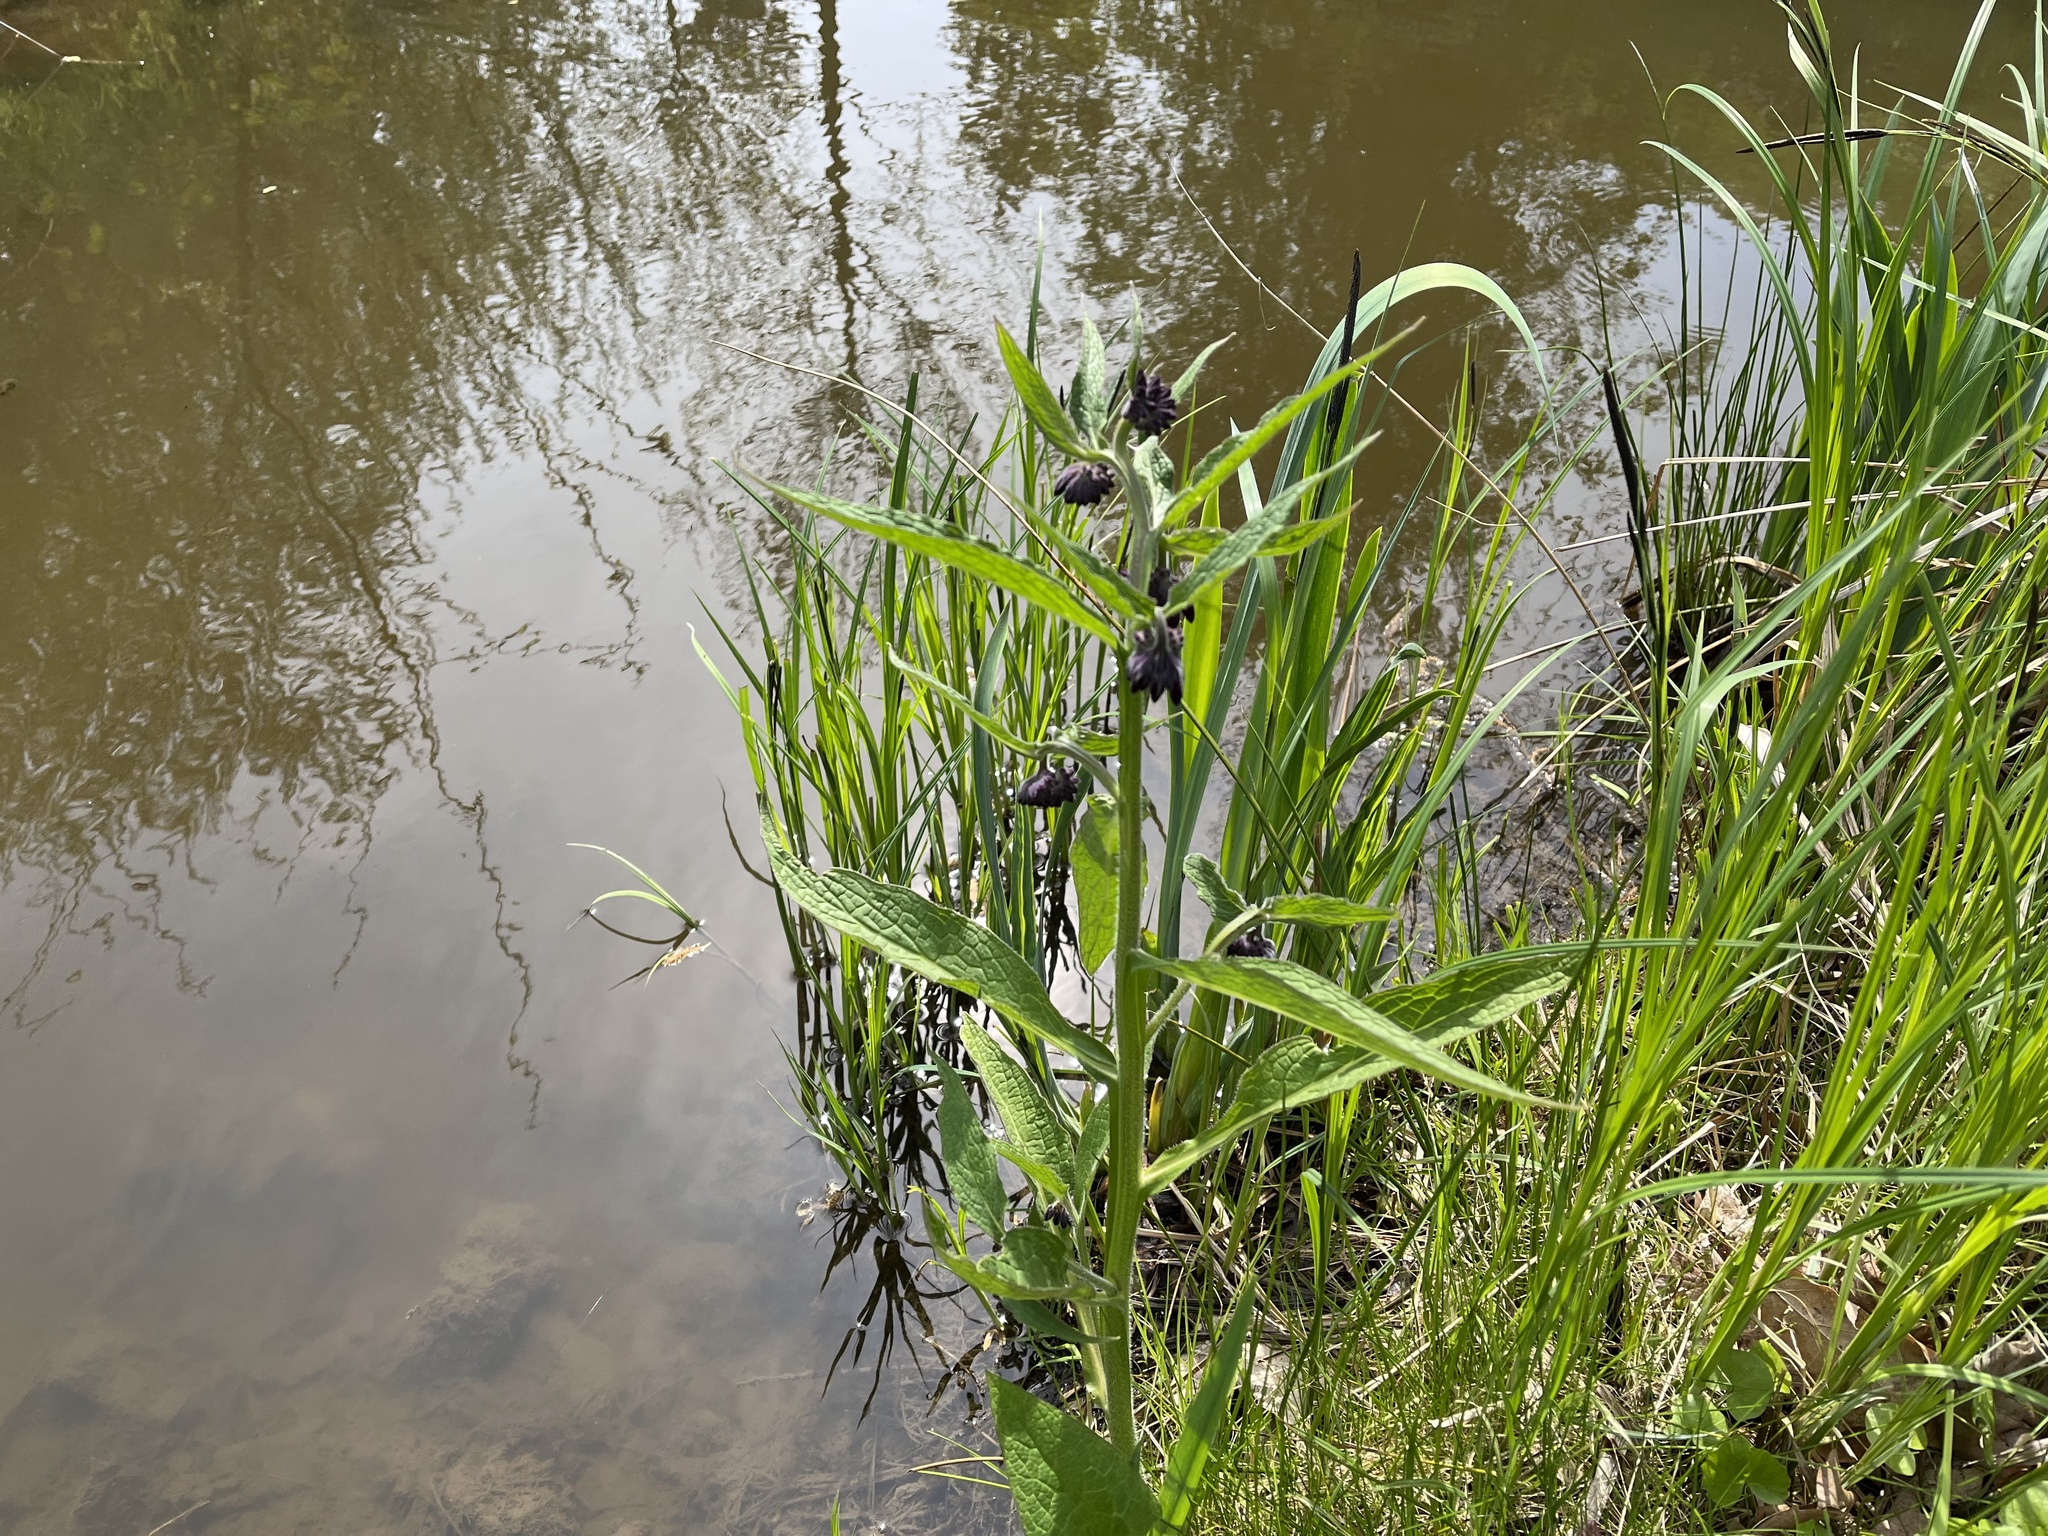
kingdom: Plantae
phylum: Tracheophyta
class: Magnoliopsida
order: Boraginales
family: Boraginaceae
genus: Symphytum
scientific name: Symphytum officinale
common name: Common comfrey
